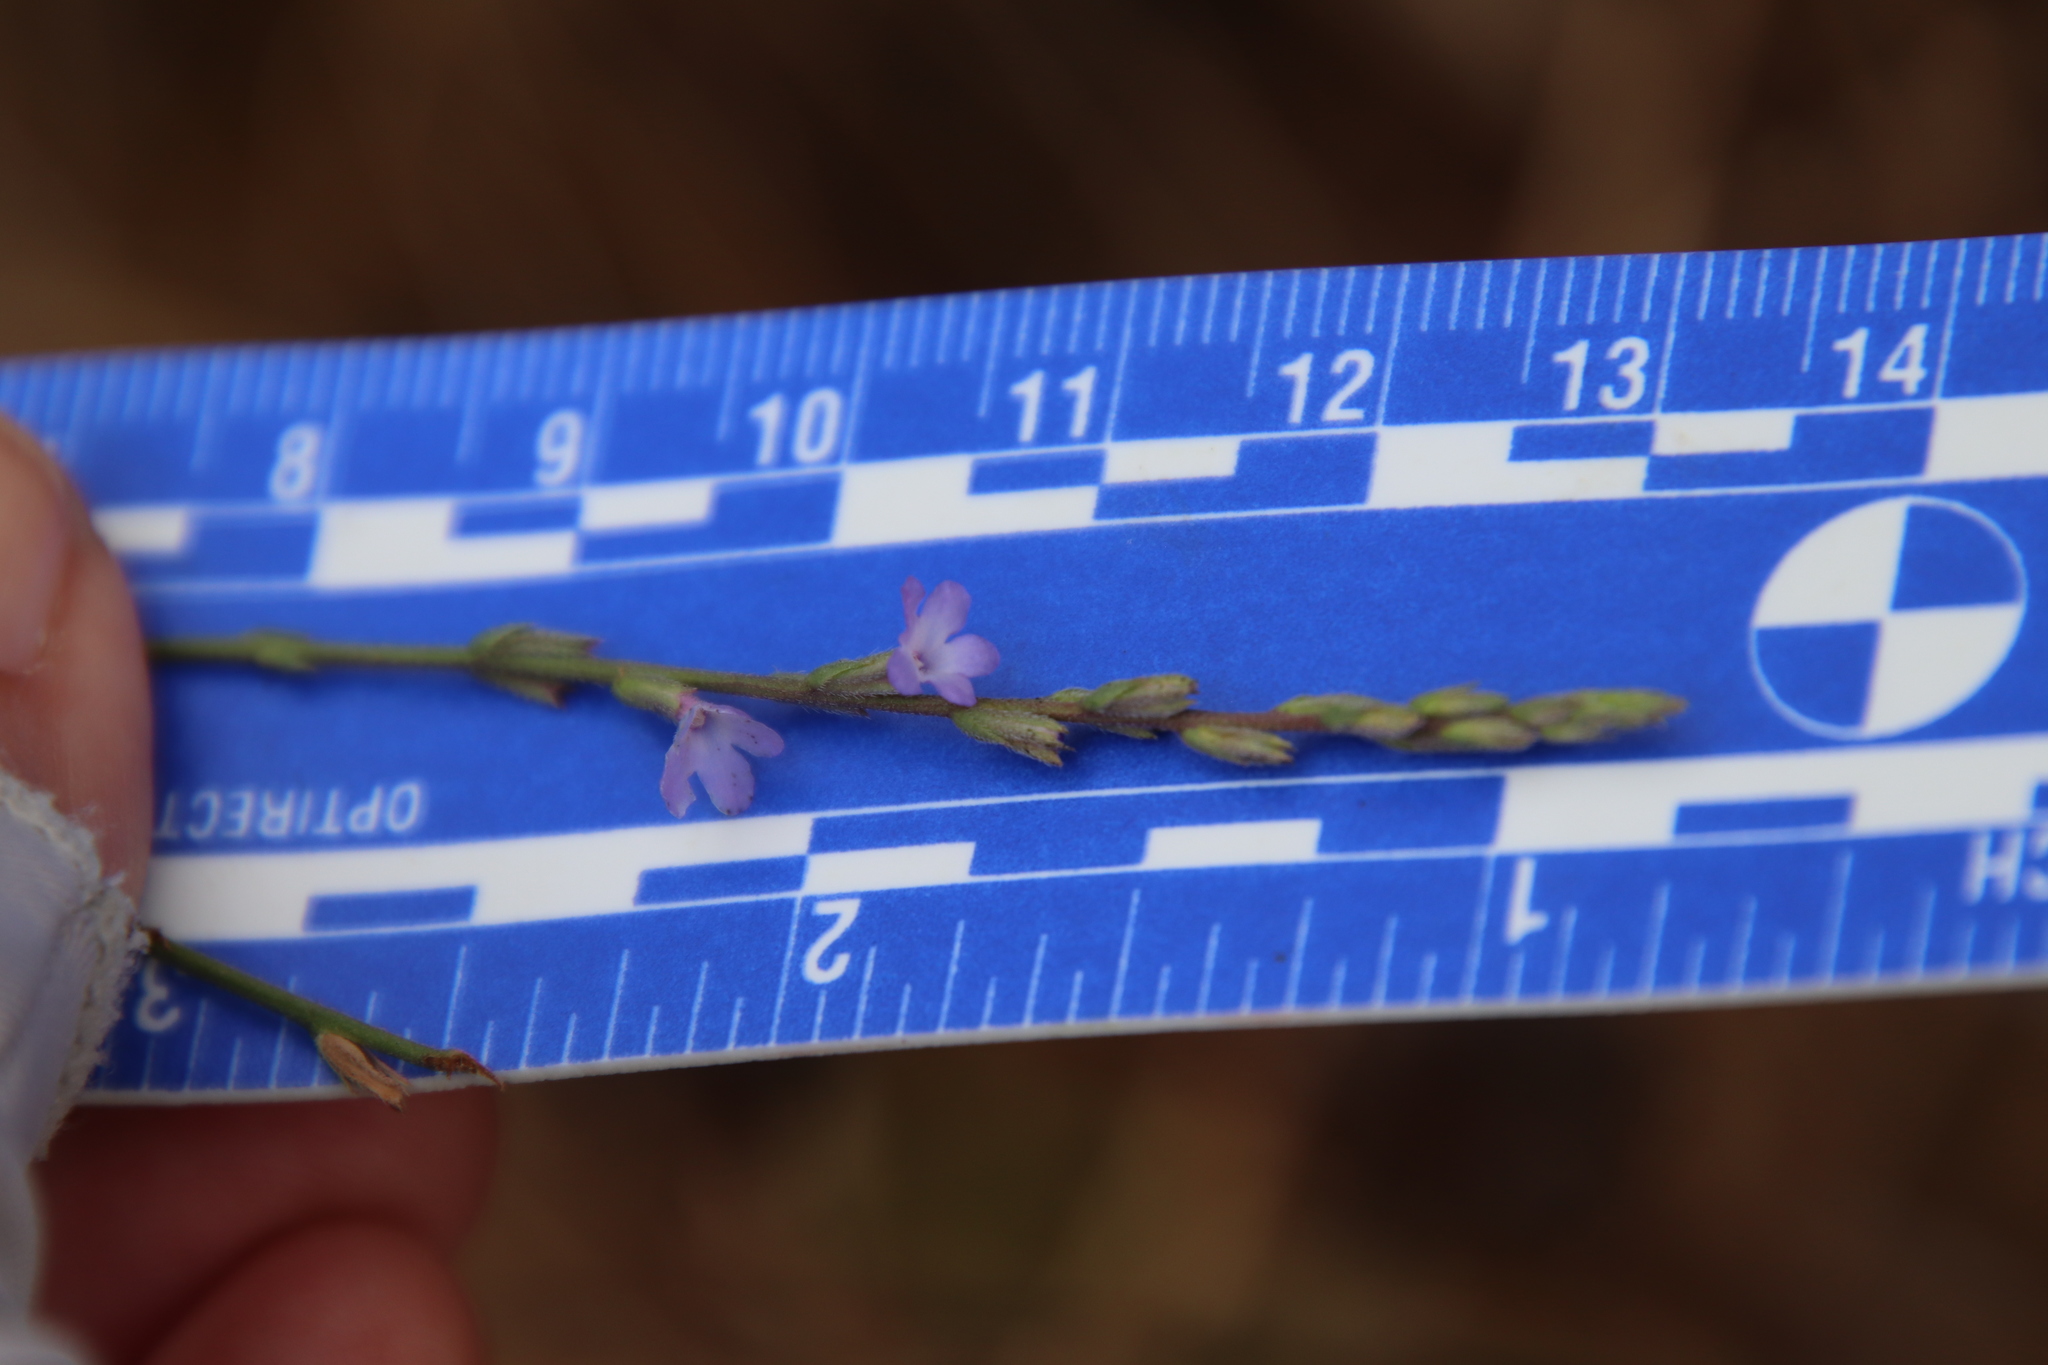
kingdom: Plantae
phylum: Tracheophyta
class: Magnoliopsida
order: Lamiales
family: Verbenaceae
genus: Verbena
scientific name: Verbena menthifolia
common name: Mint-leaf vervain
